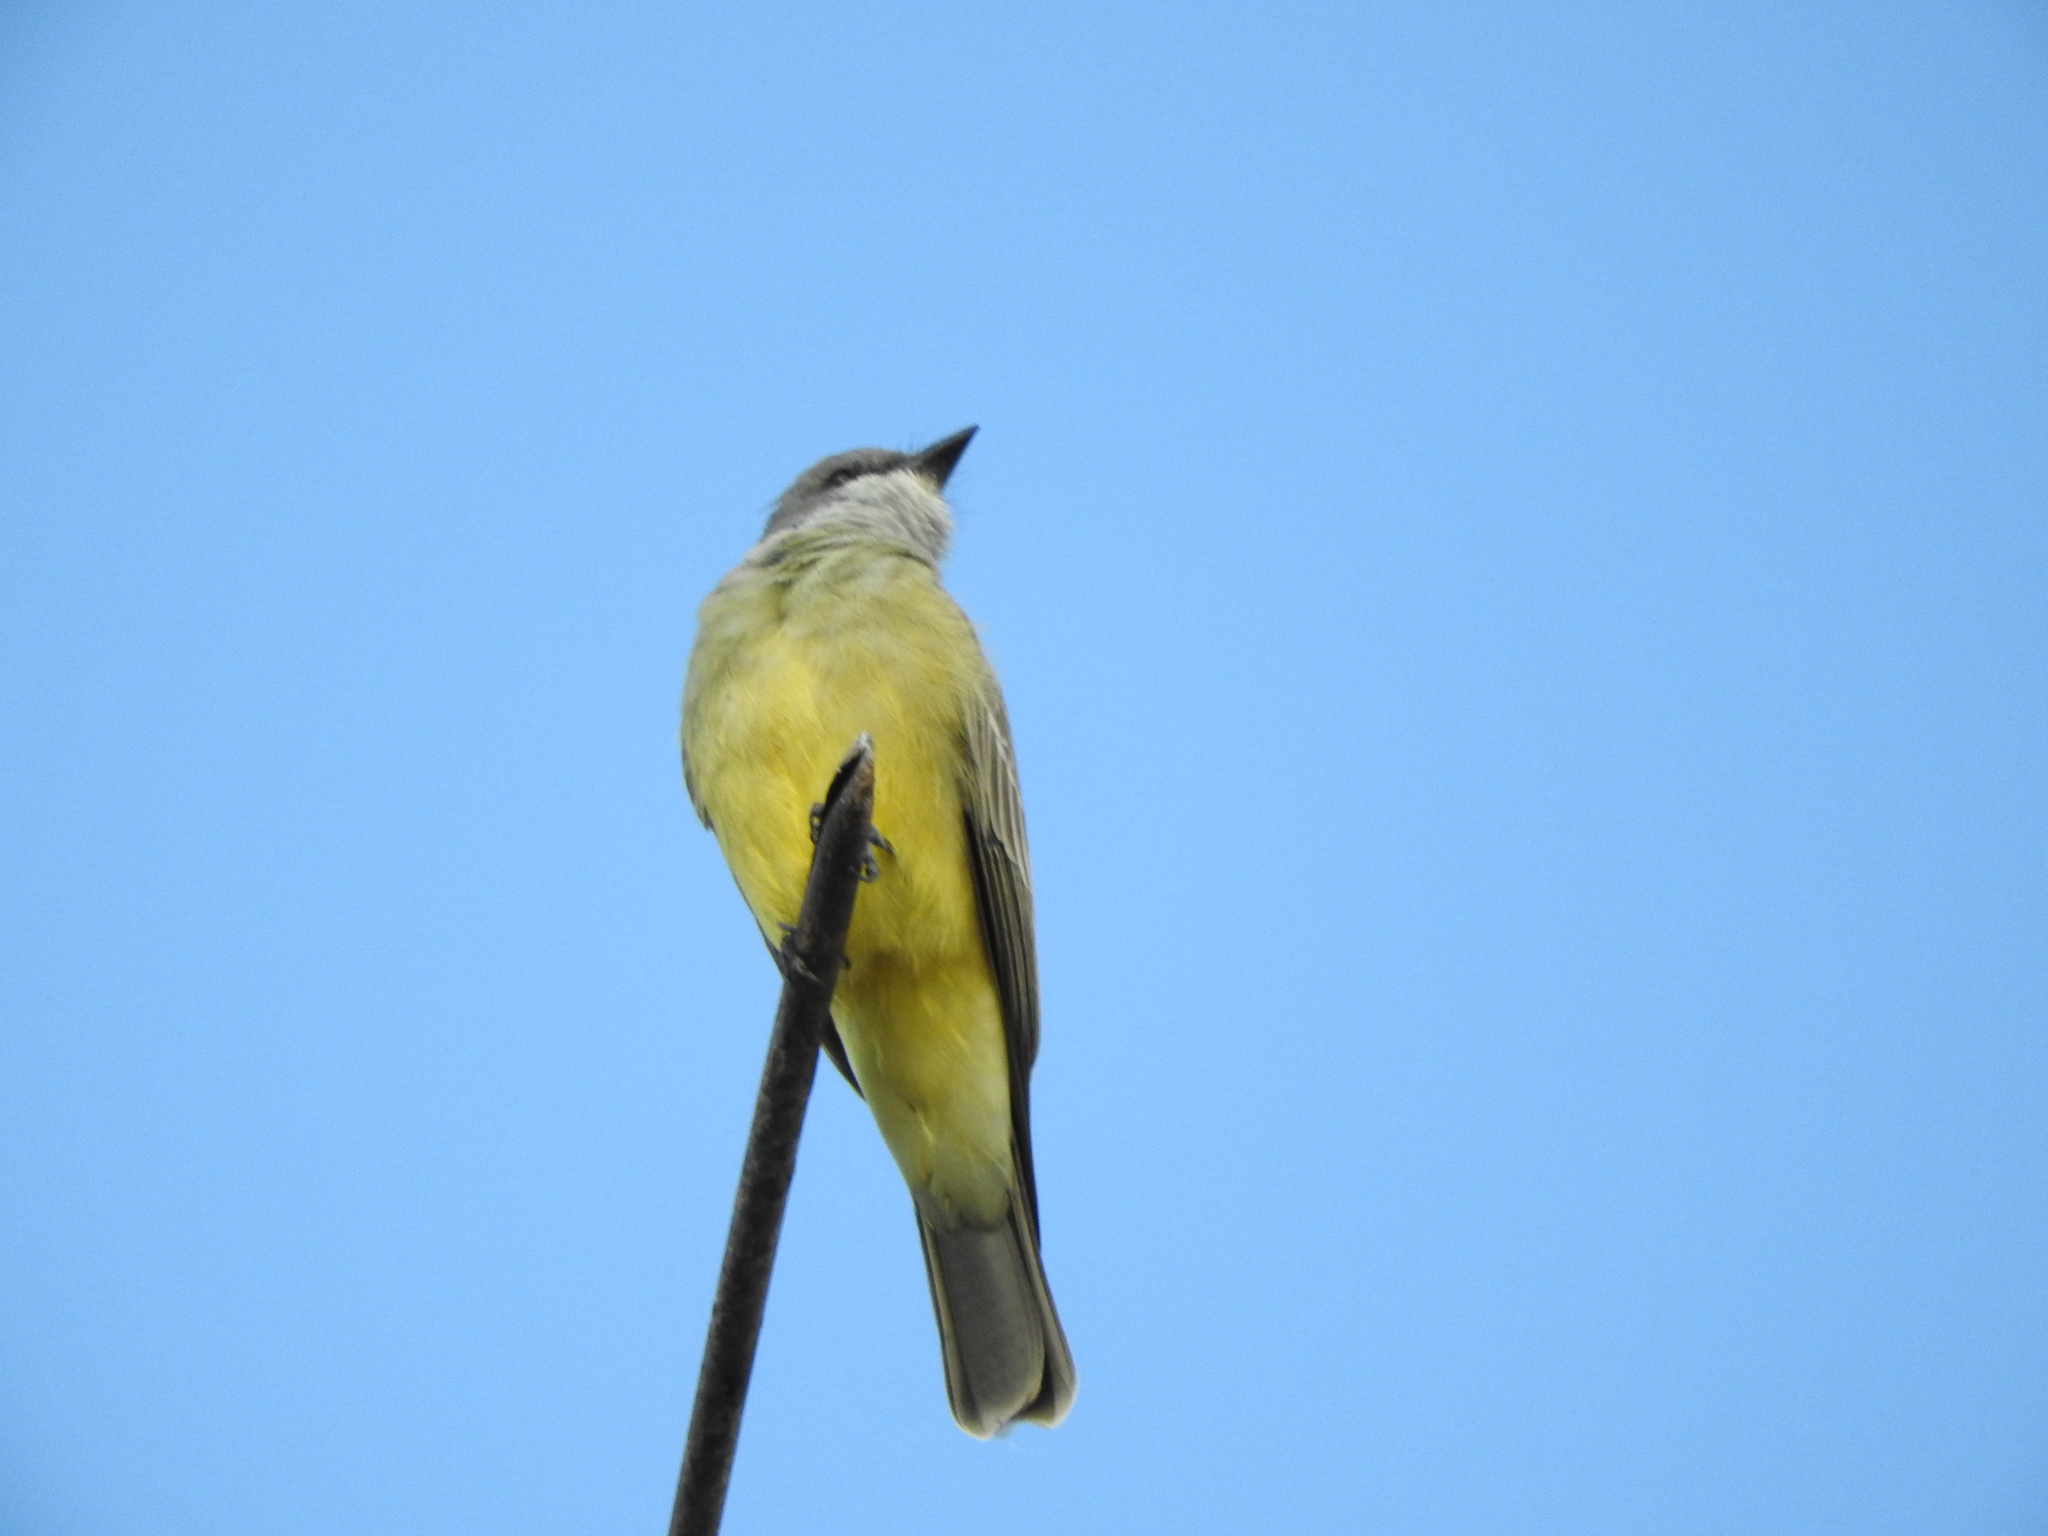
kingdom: Animalia
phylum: Chordata
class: Aves
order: Passeriformes
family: Tyrannidae
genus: Tyrannus
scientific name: Tyrannus vociferans
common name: Cassin's kingbird
